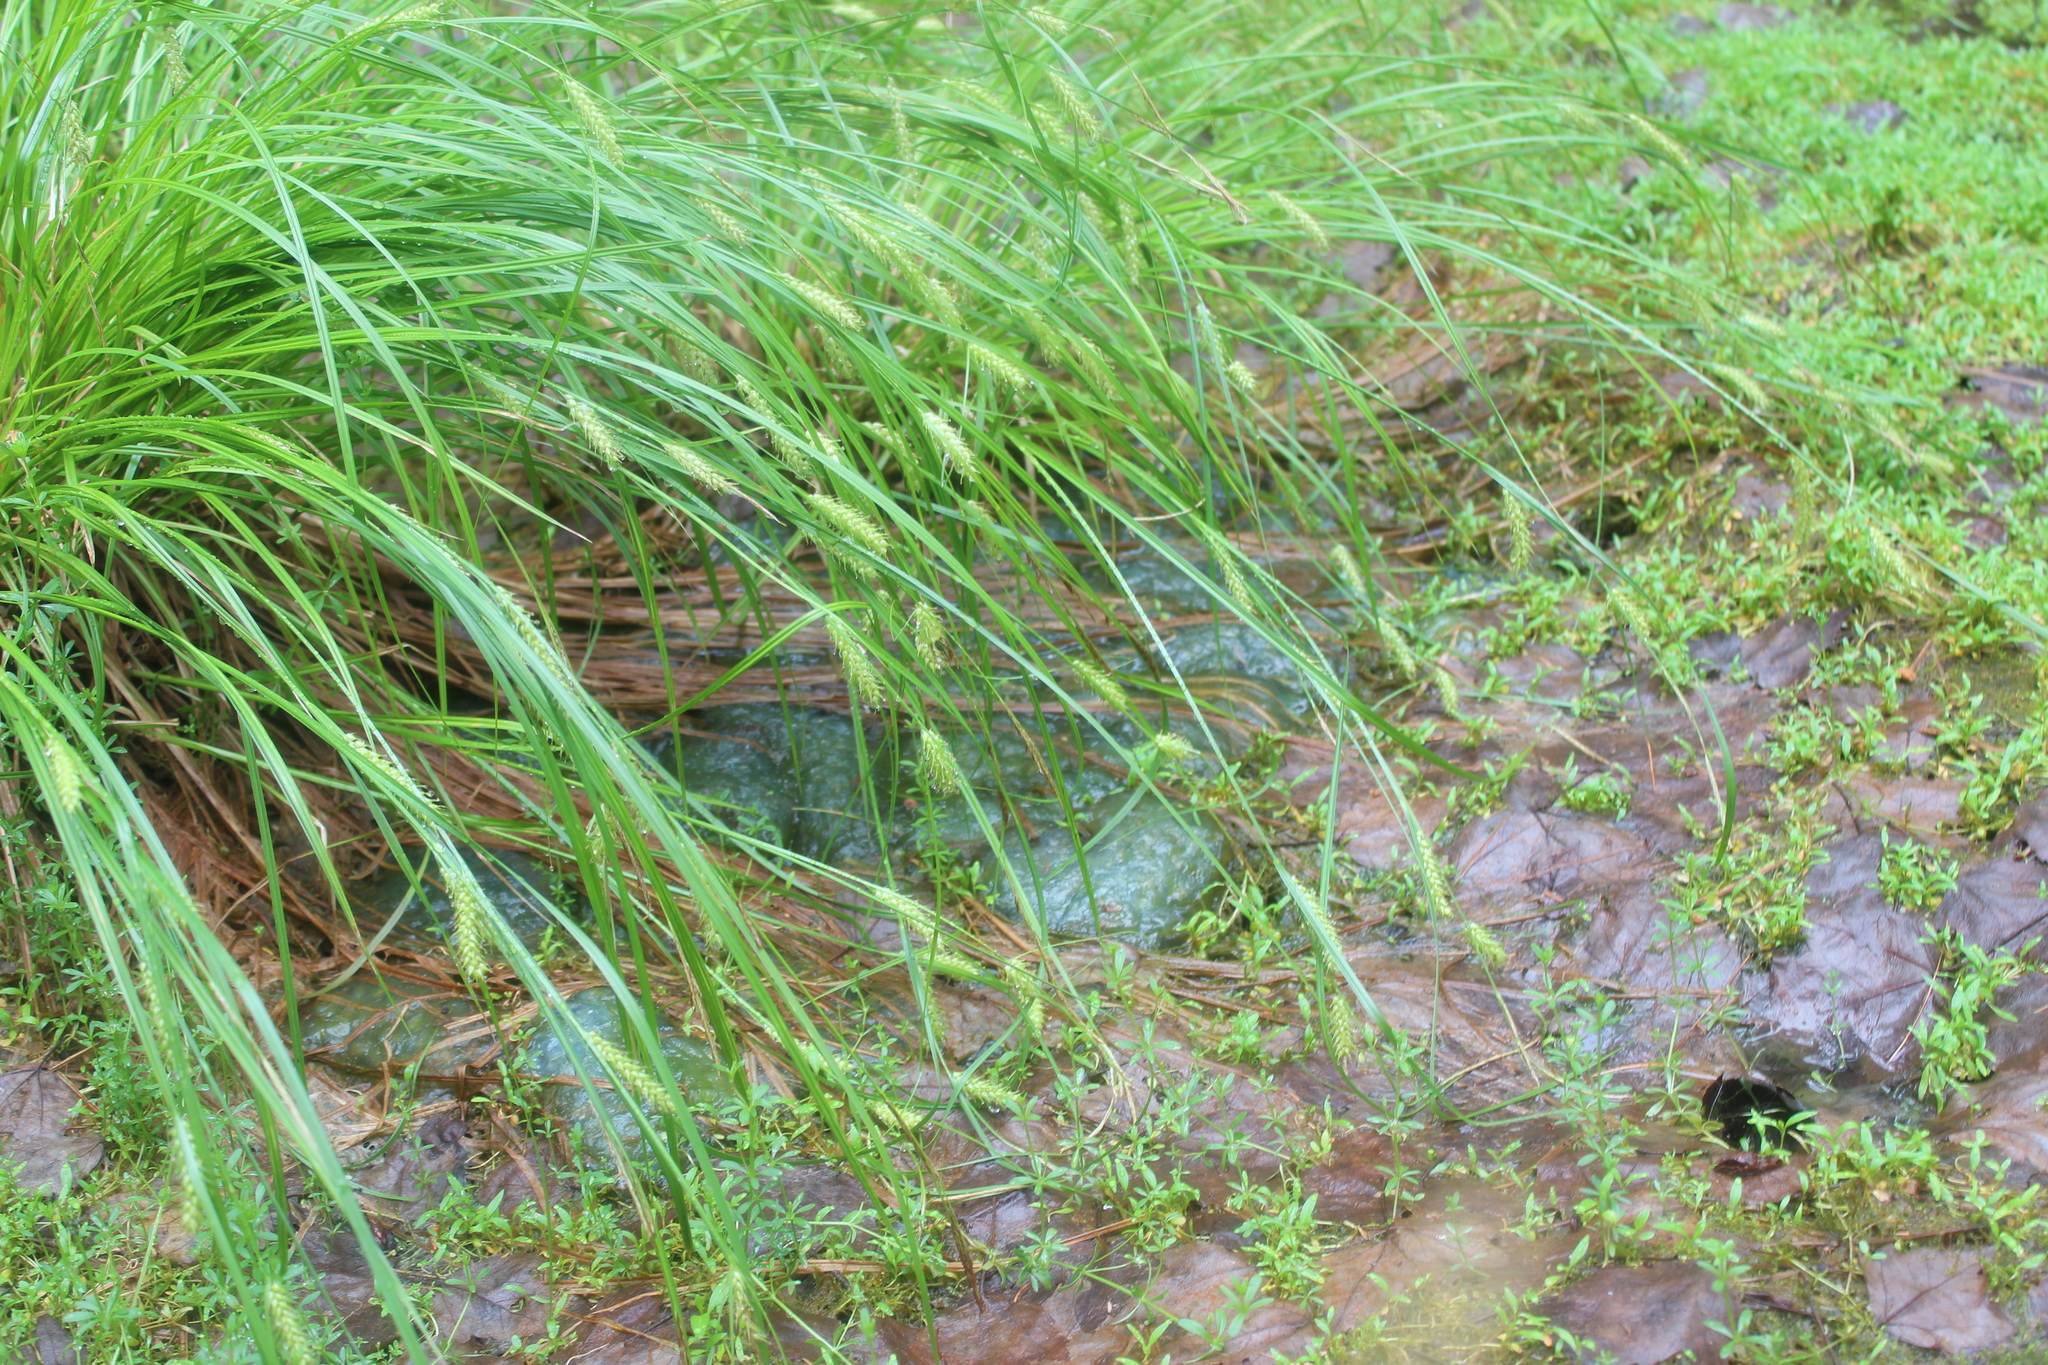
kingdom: Animalia
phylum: Chordata
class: Amphibia
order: Caudata
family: Ambystomatidae
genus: Ambystoma
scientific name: Ambystoma maculatum
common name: Spotted salamander
